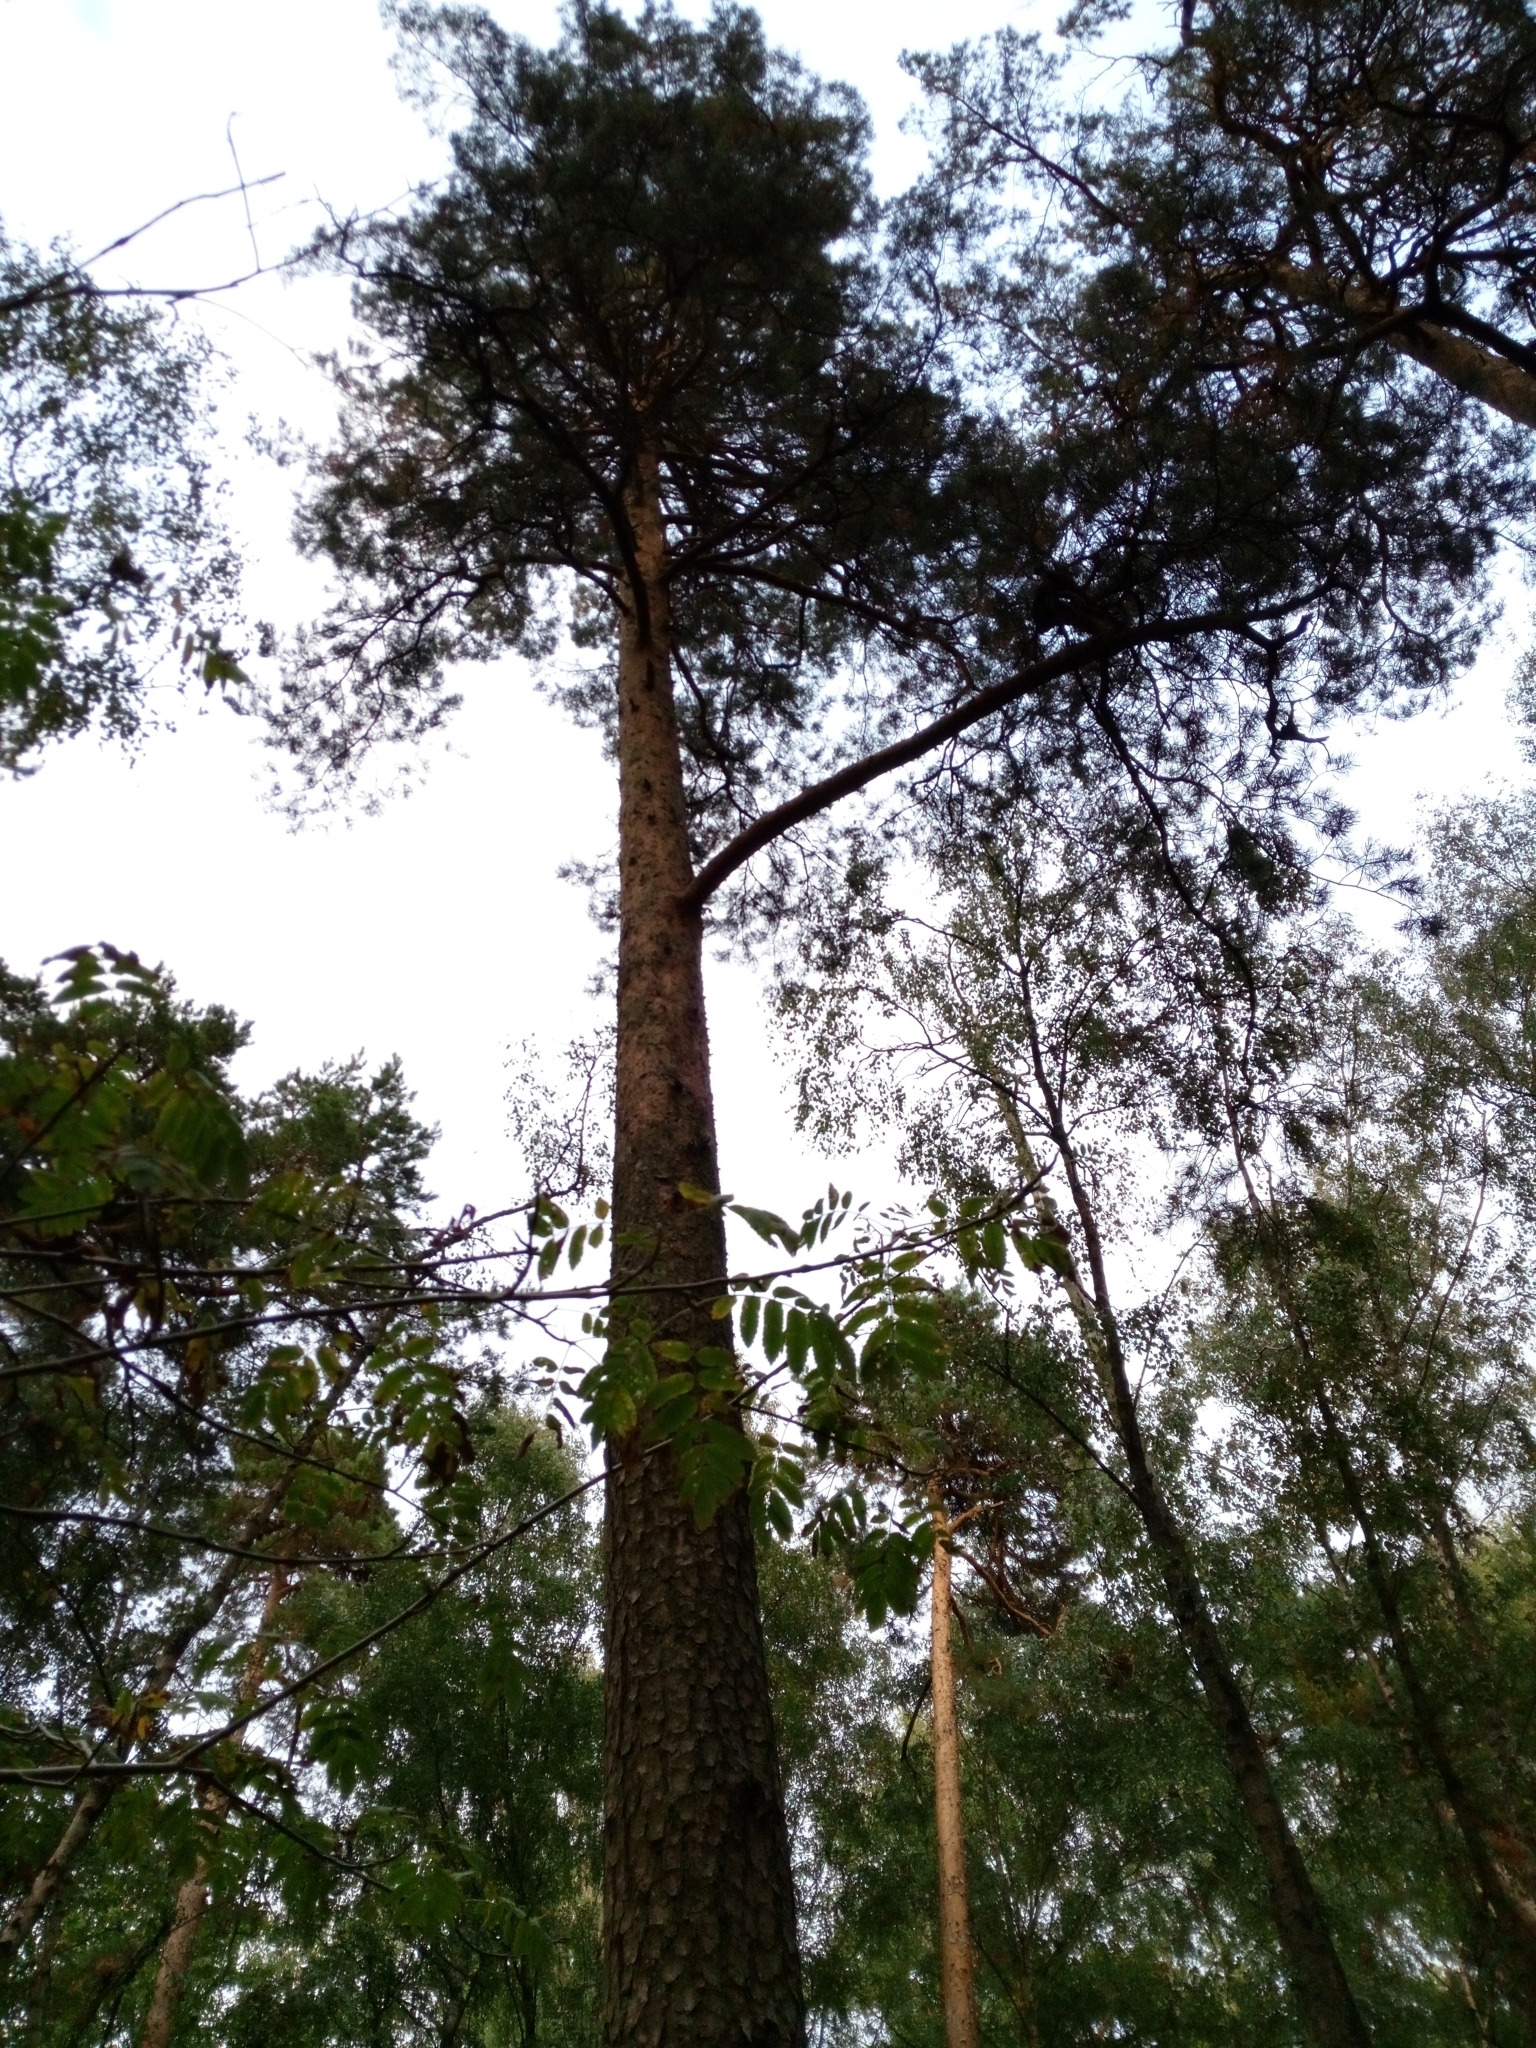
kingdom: Plantae
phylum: Tracheophyta
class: Pinopsida
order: Pinales
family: Pinaceae
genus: Pinus
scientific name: Pinus sylvestris
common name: Scots pine
